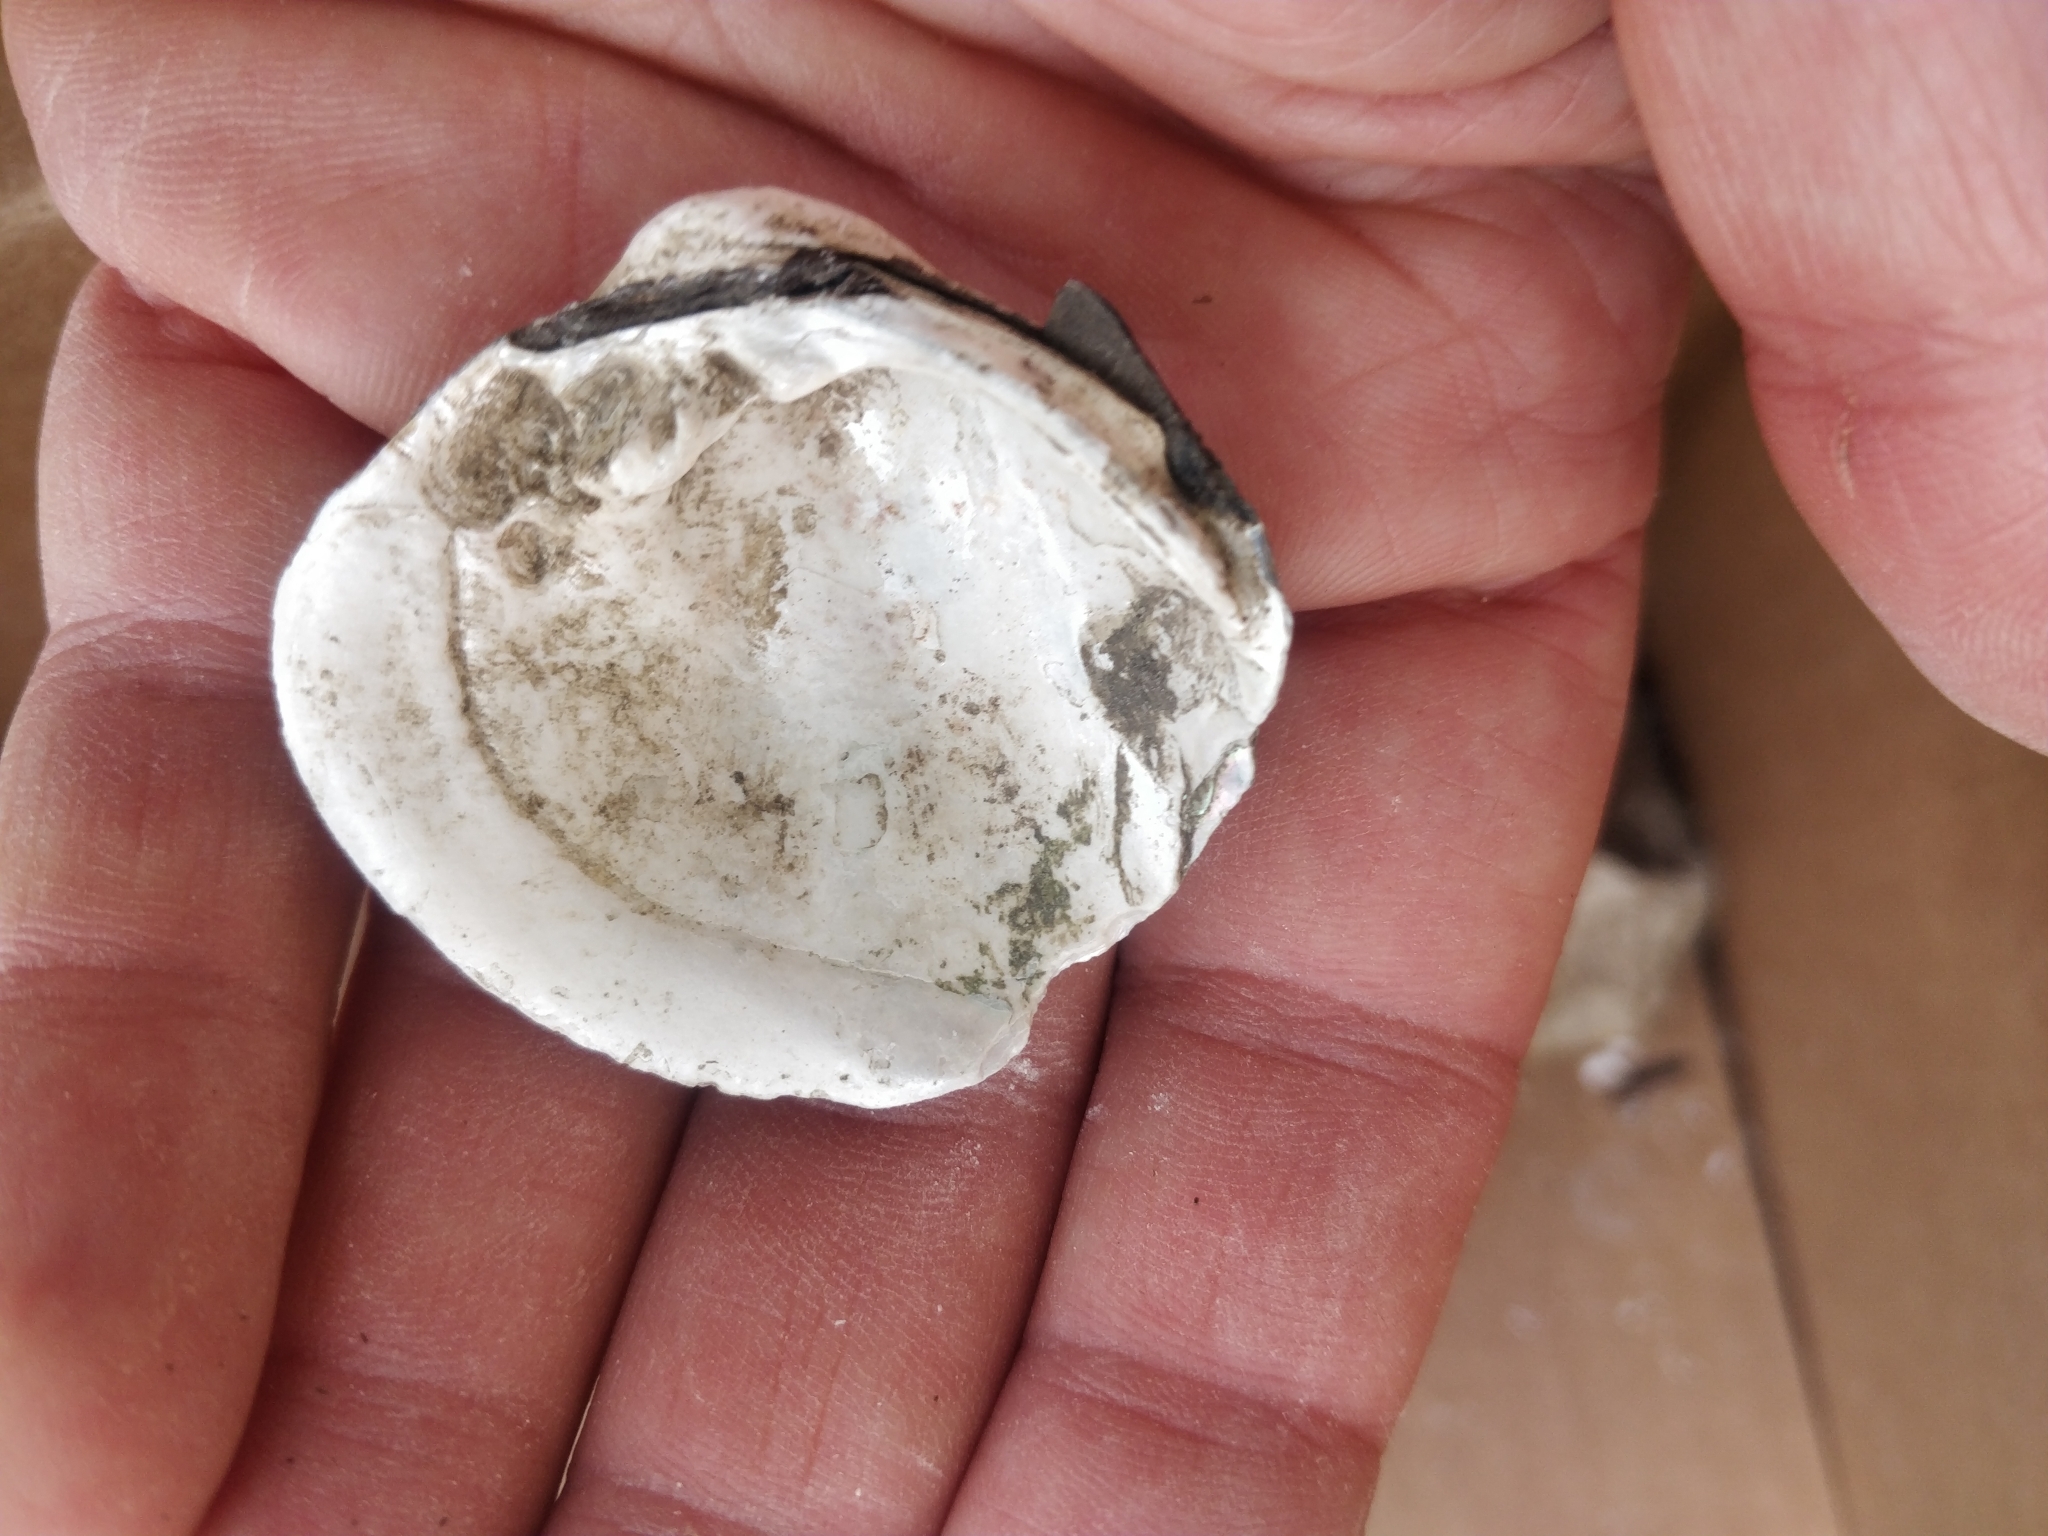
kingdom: Animalia
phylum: Mollusca
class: Bivalvia
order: Unionida
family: Unionidae
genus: Cyclonaias
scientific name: Cyclonaias pustulosa
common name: Pimpleback
